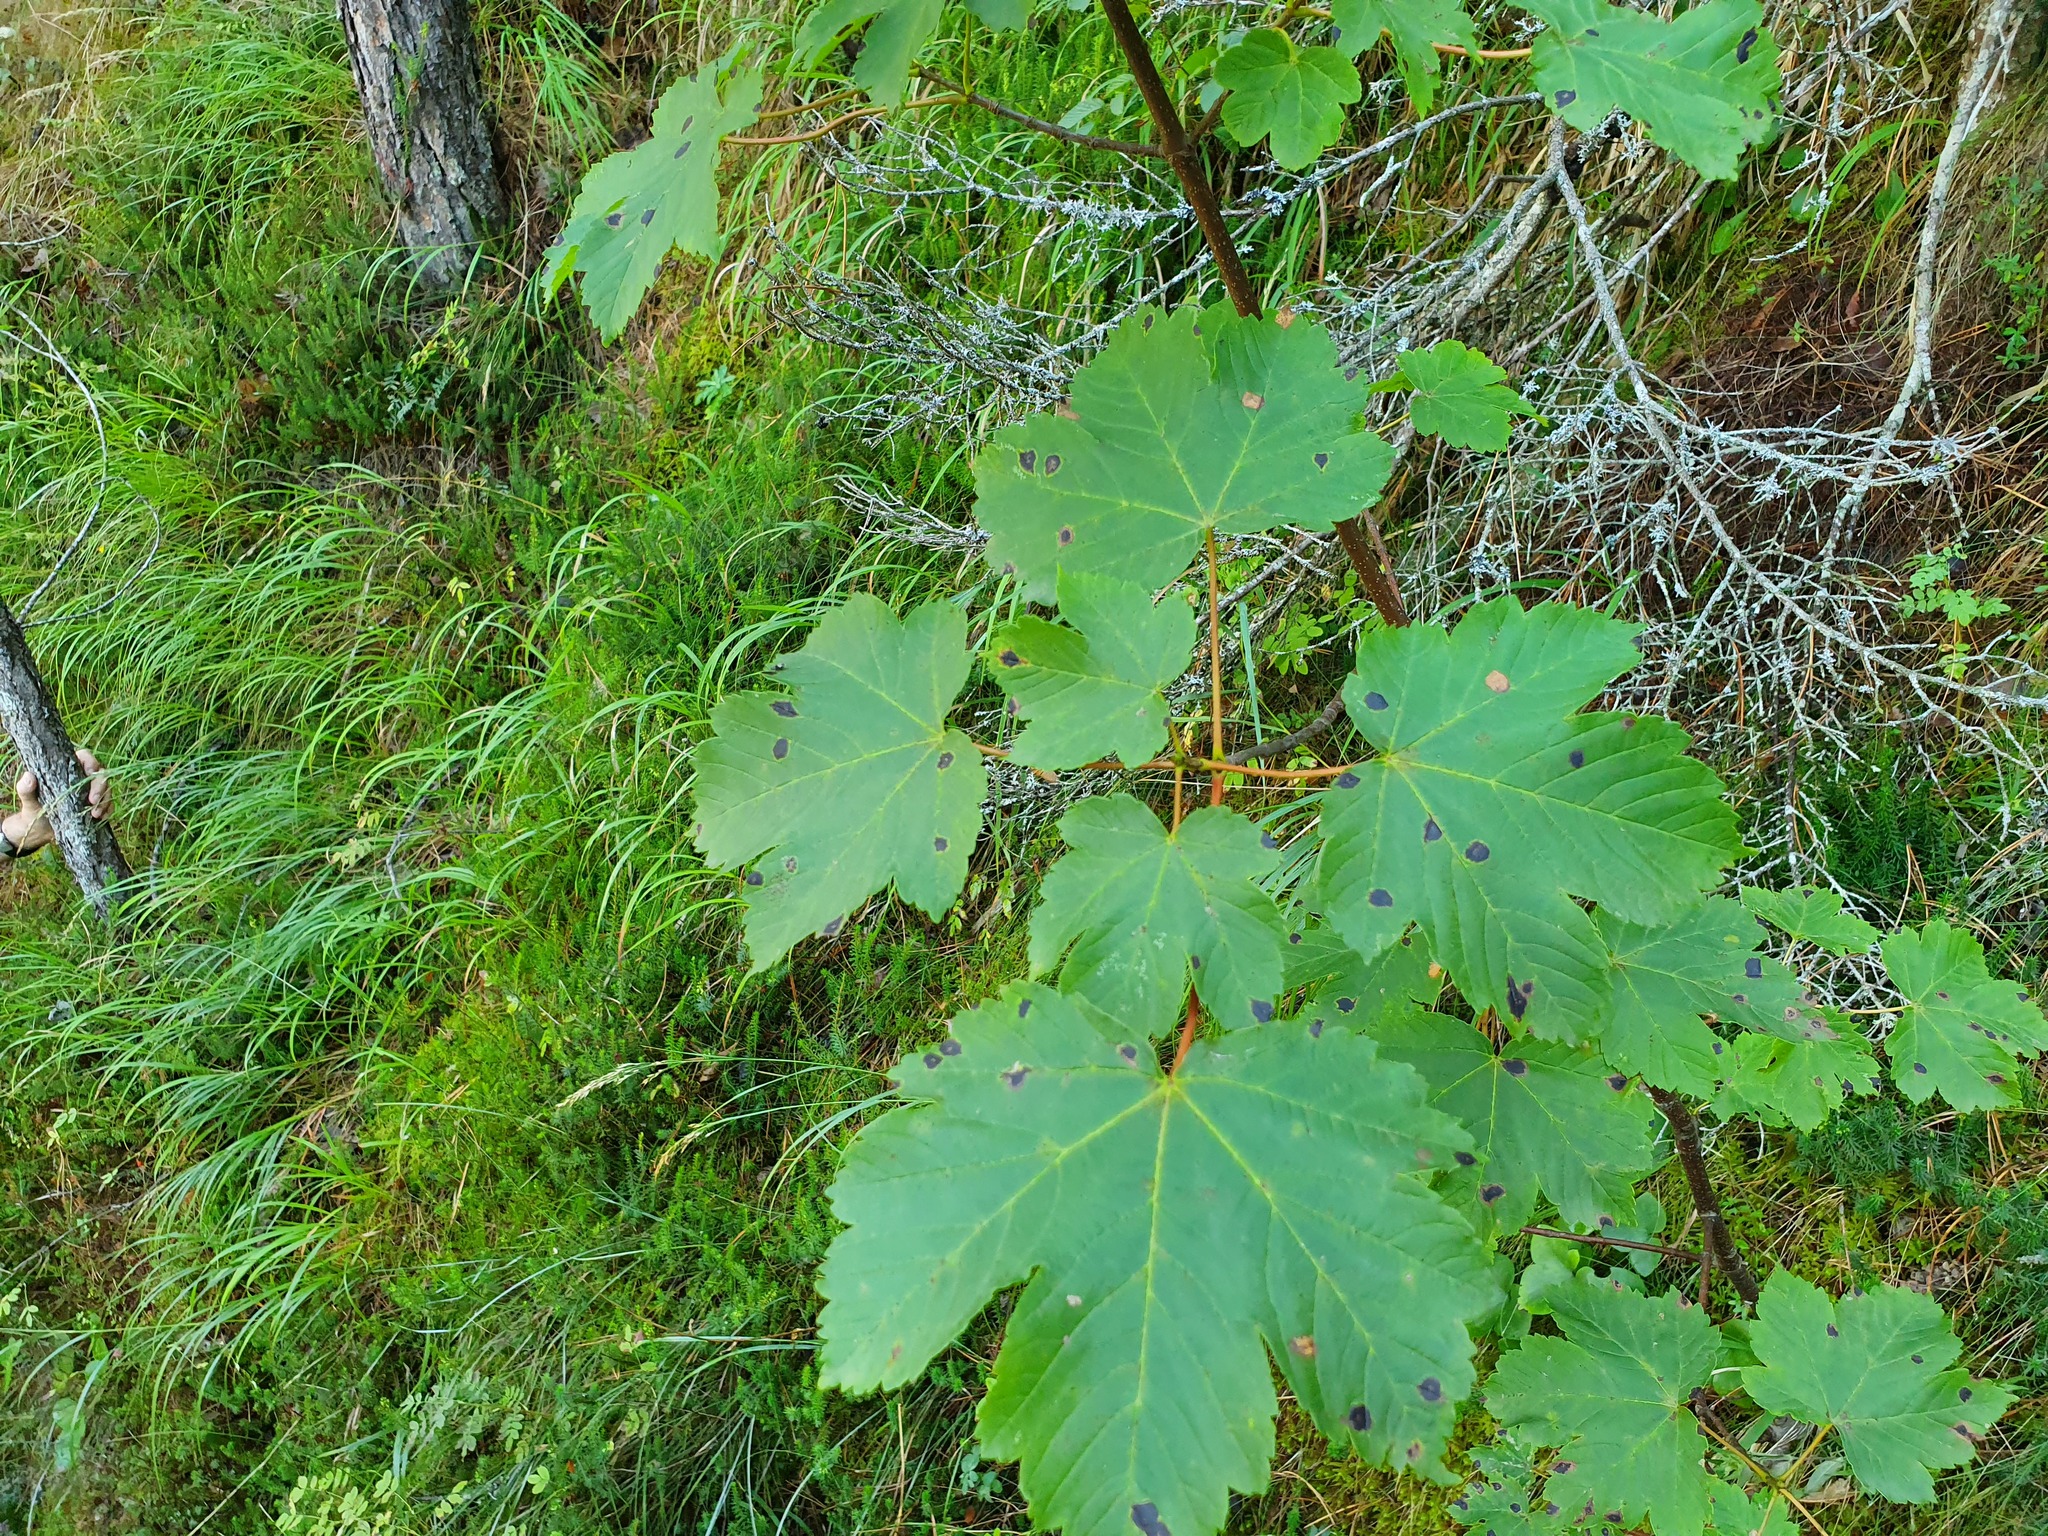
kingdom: Plantae
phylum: Tracheophyta
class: Magnoliopsida
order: Sapindales
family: Sapindaceae
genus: Acer
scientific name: Acer pseudoplatanus
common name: Sycamore
